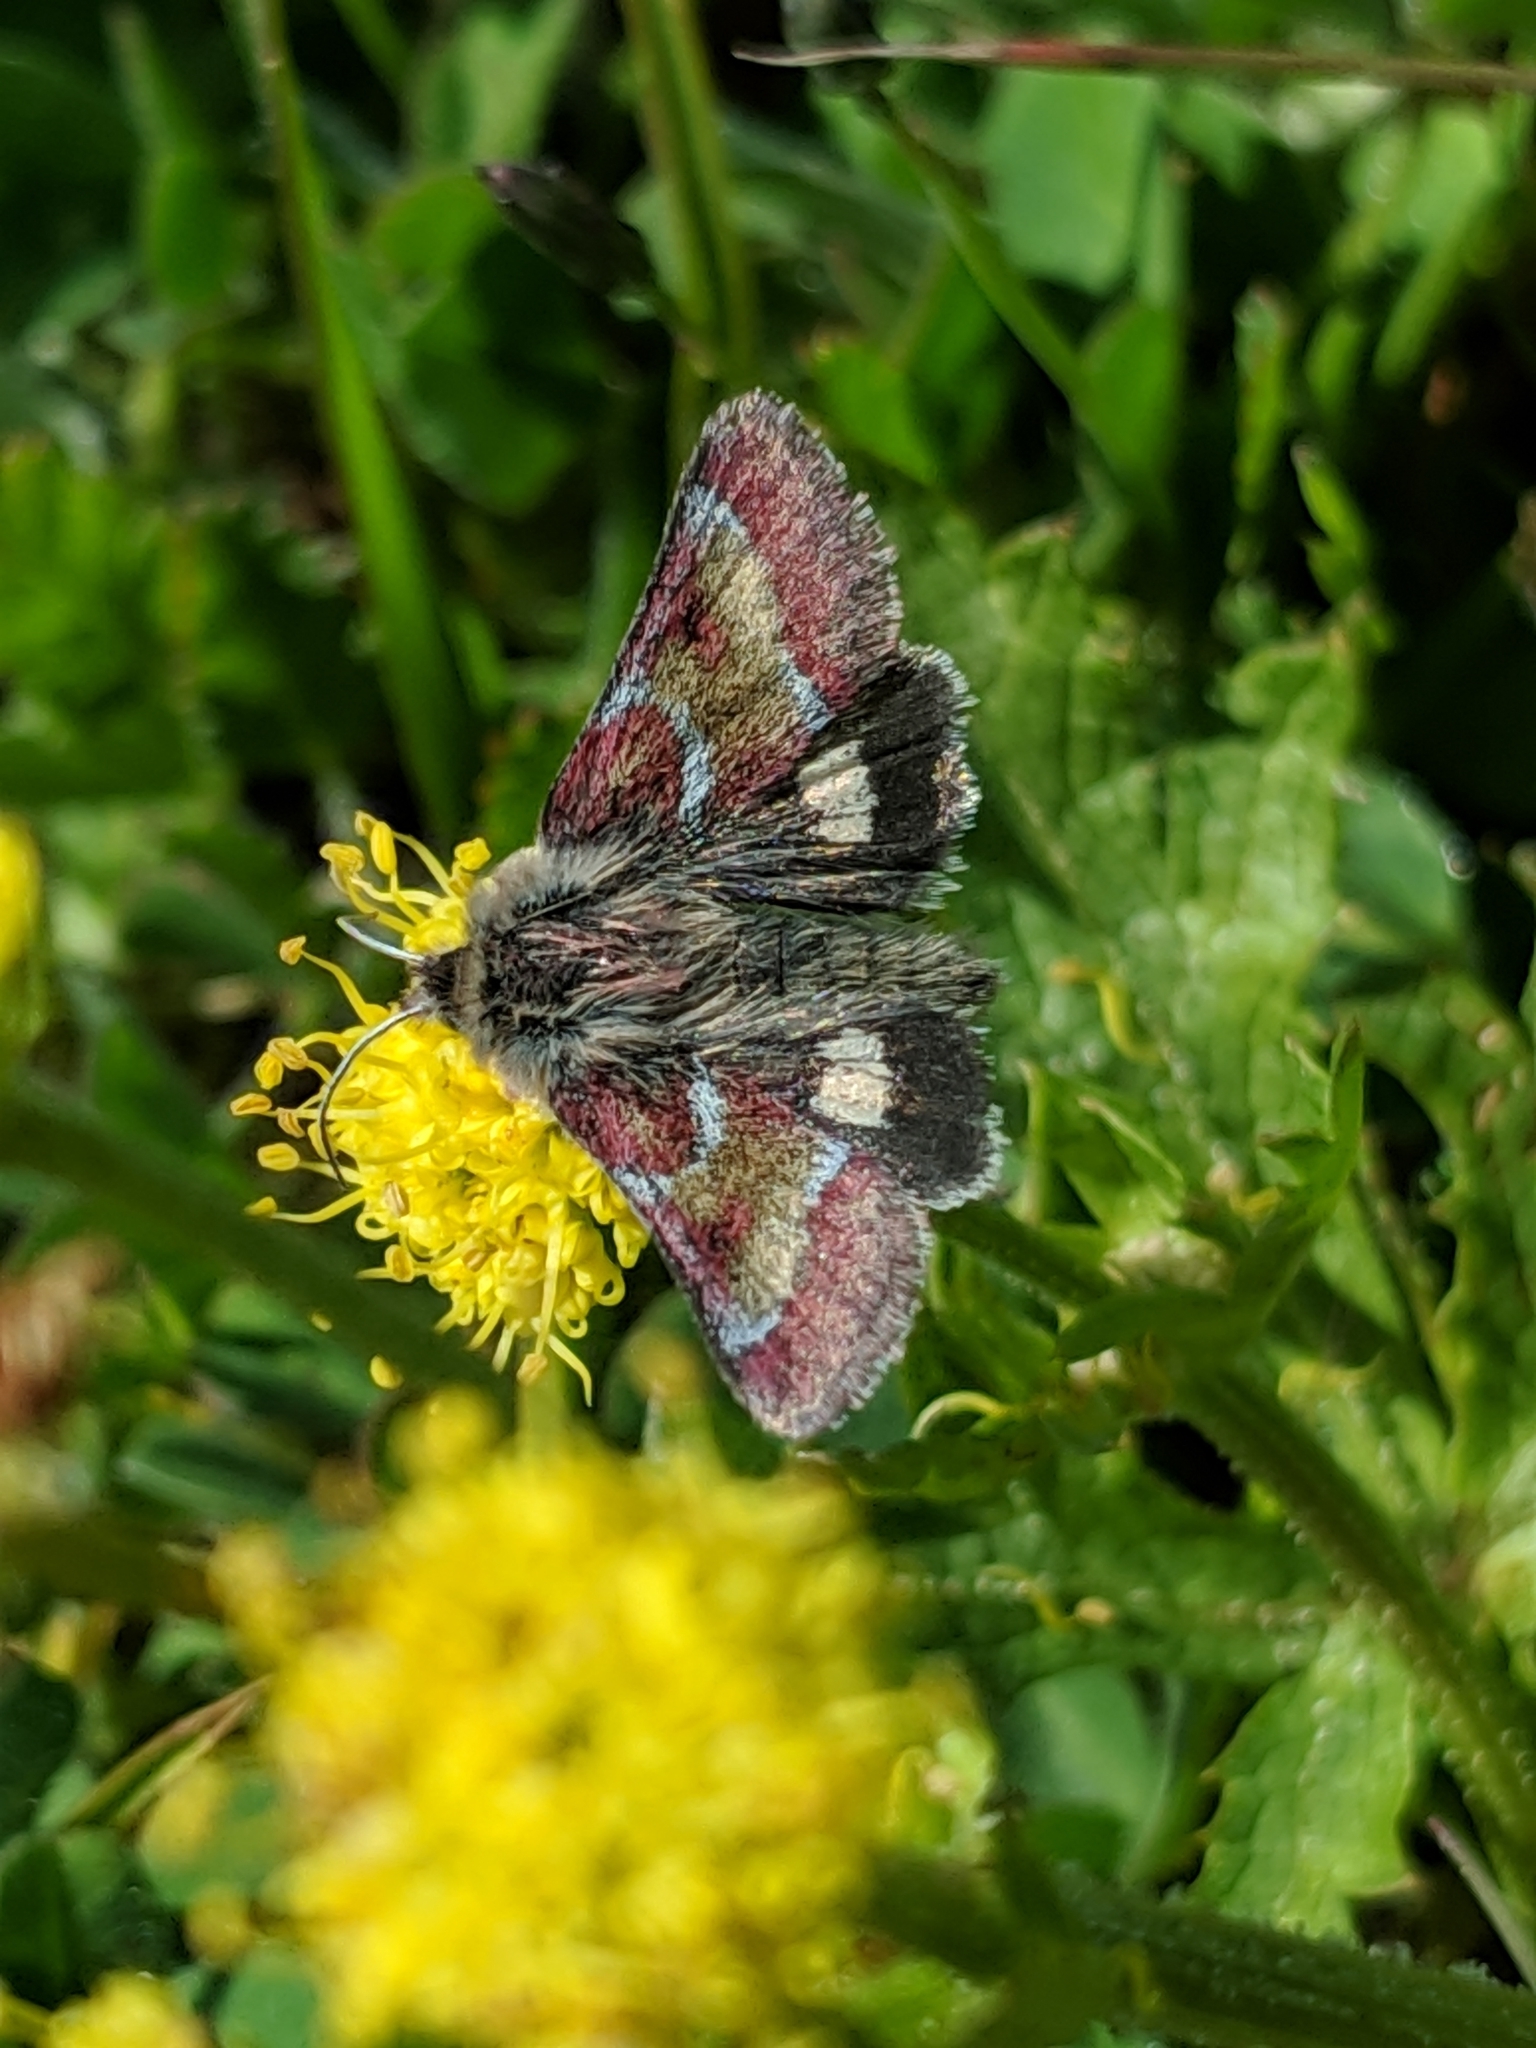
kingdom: Animalia
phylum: Arthropoda
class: Insecta
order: Lepidoptera
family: Noctuidae
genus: Schinia
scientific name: Schinia pulchripennis
